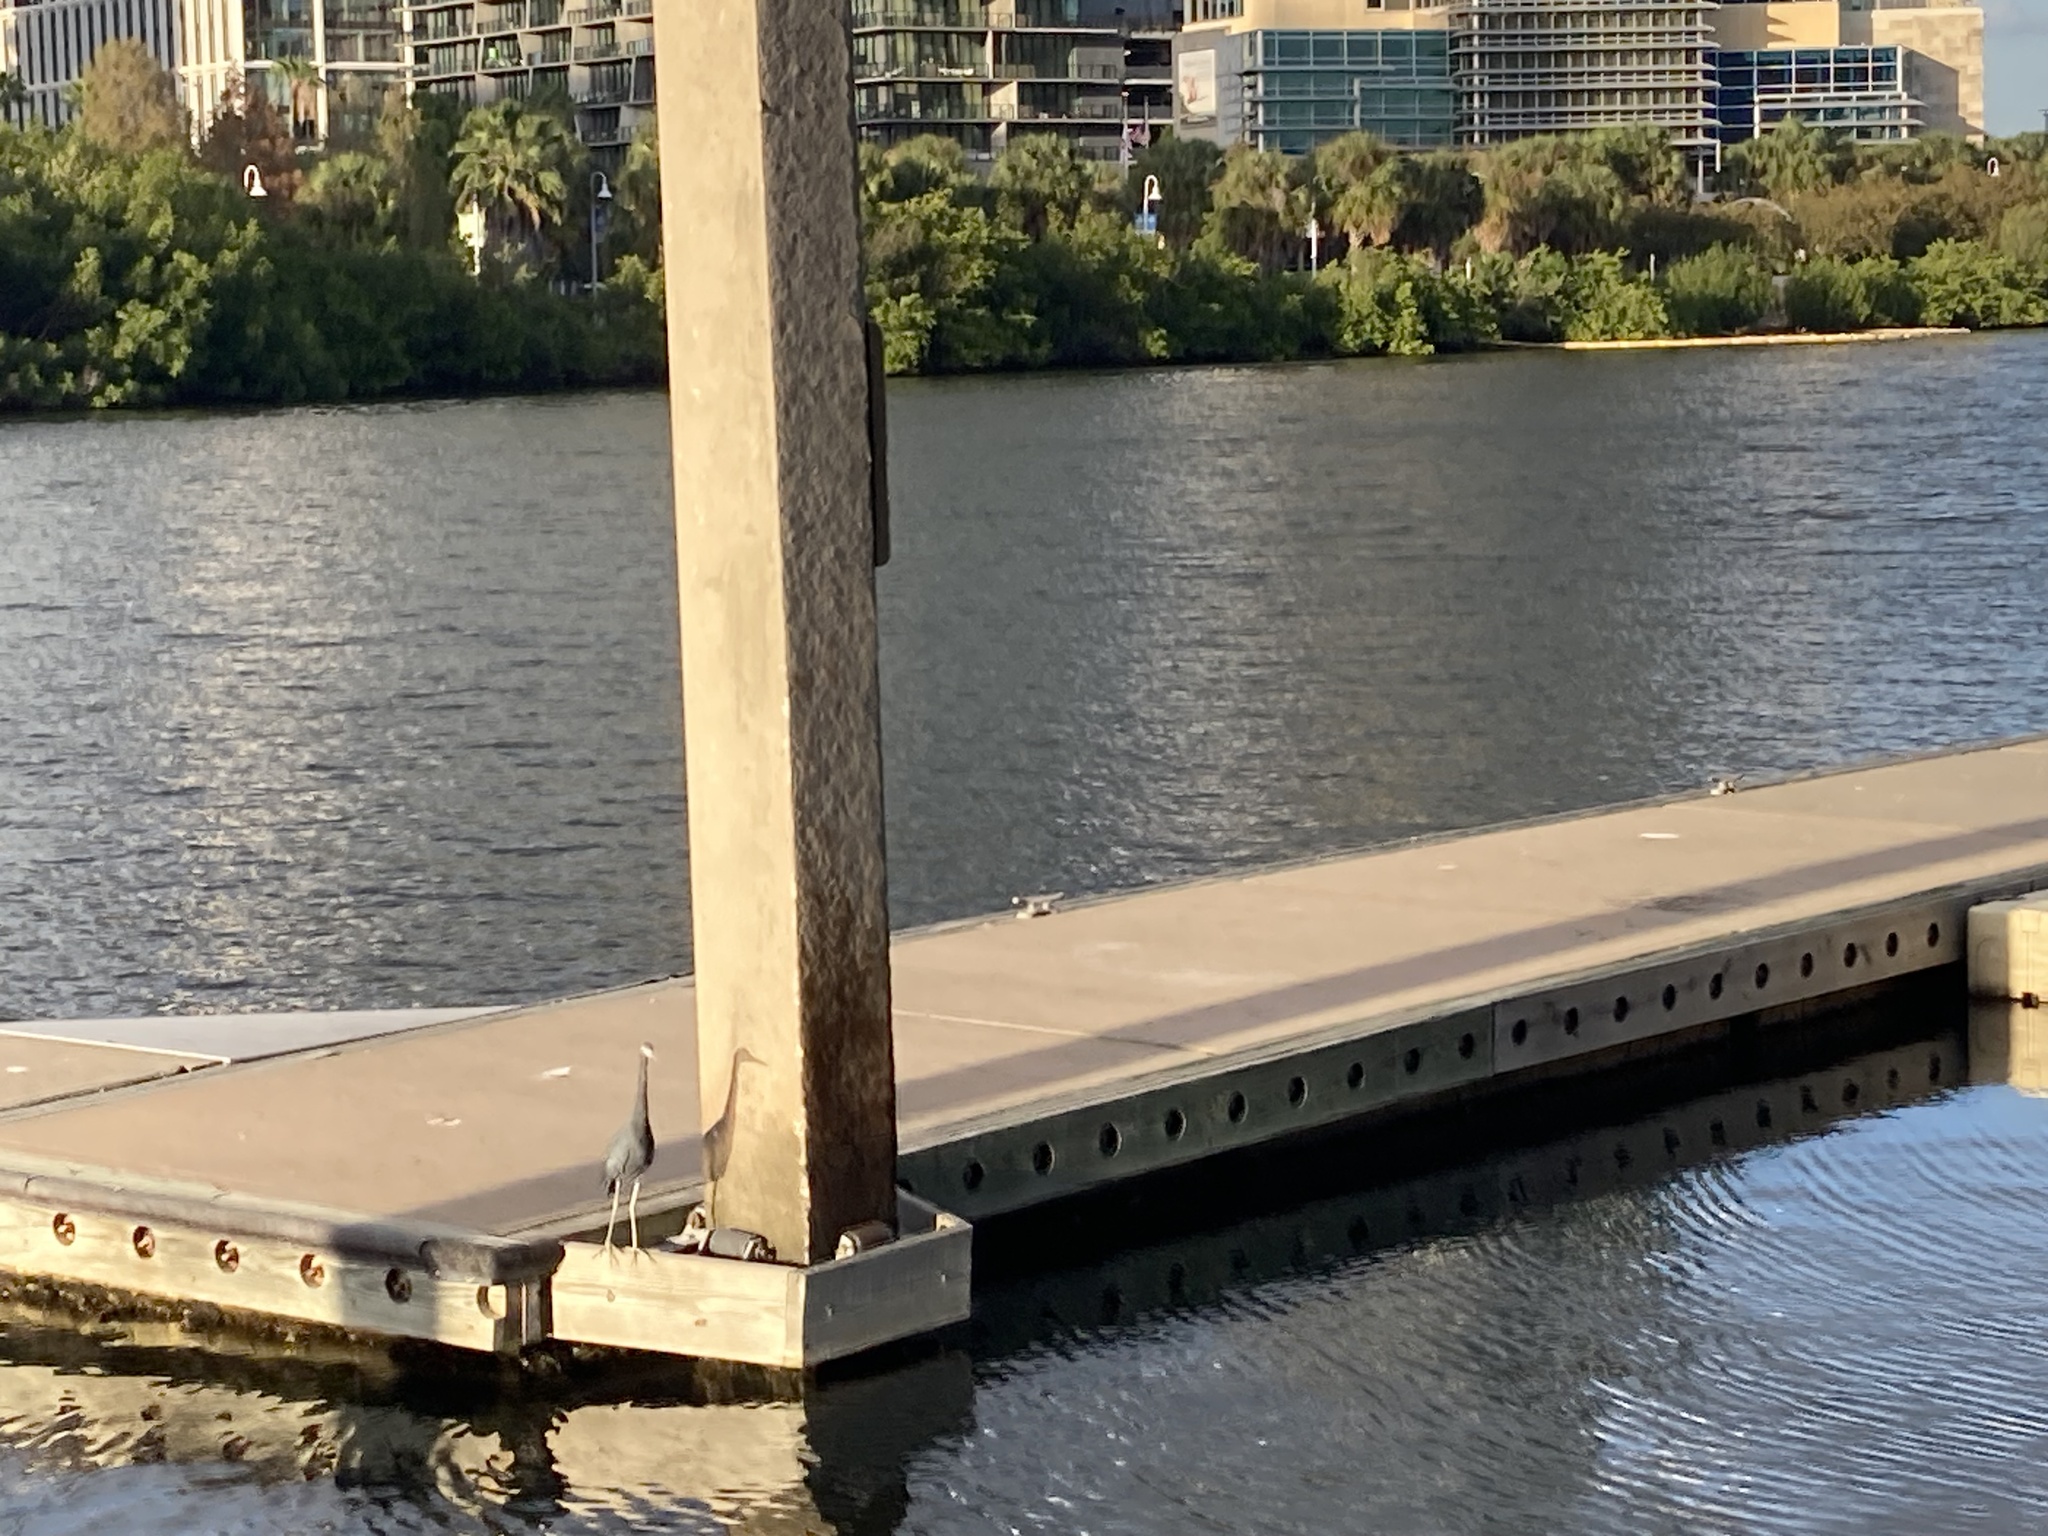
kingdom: Animalia
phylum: Chordata
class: Aves
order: Pelecaniformes
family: Ardeidae
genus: Egretta
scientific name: Egretta caerulea
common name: Little blue heron
